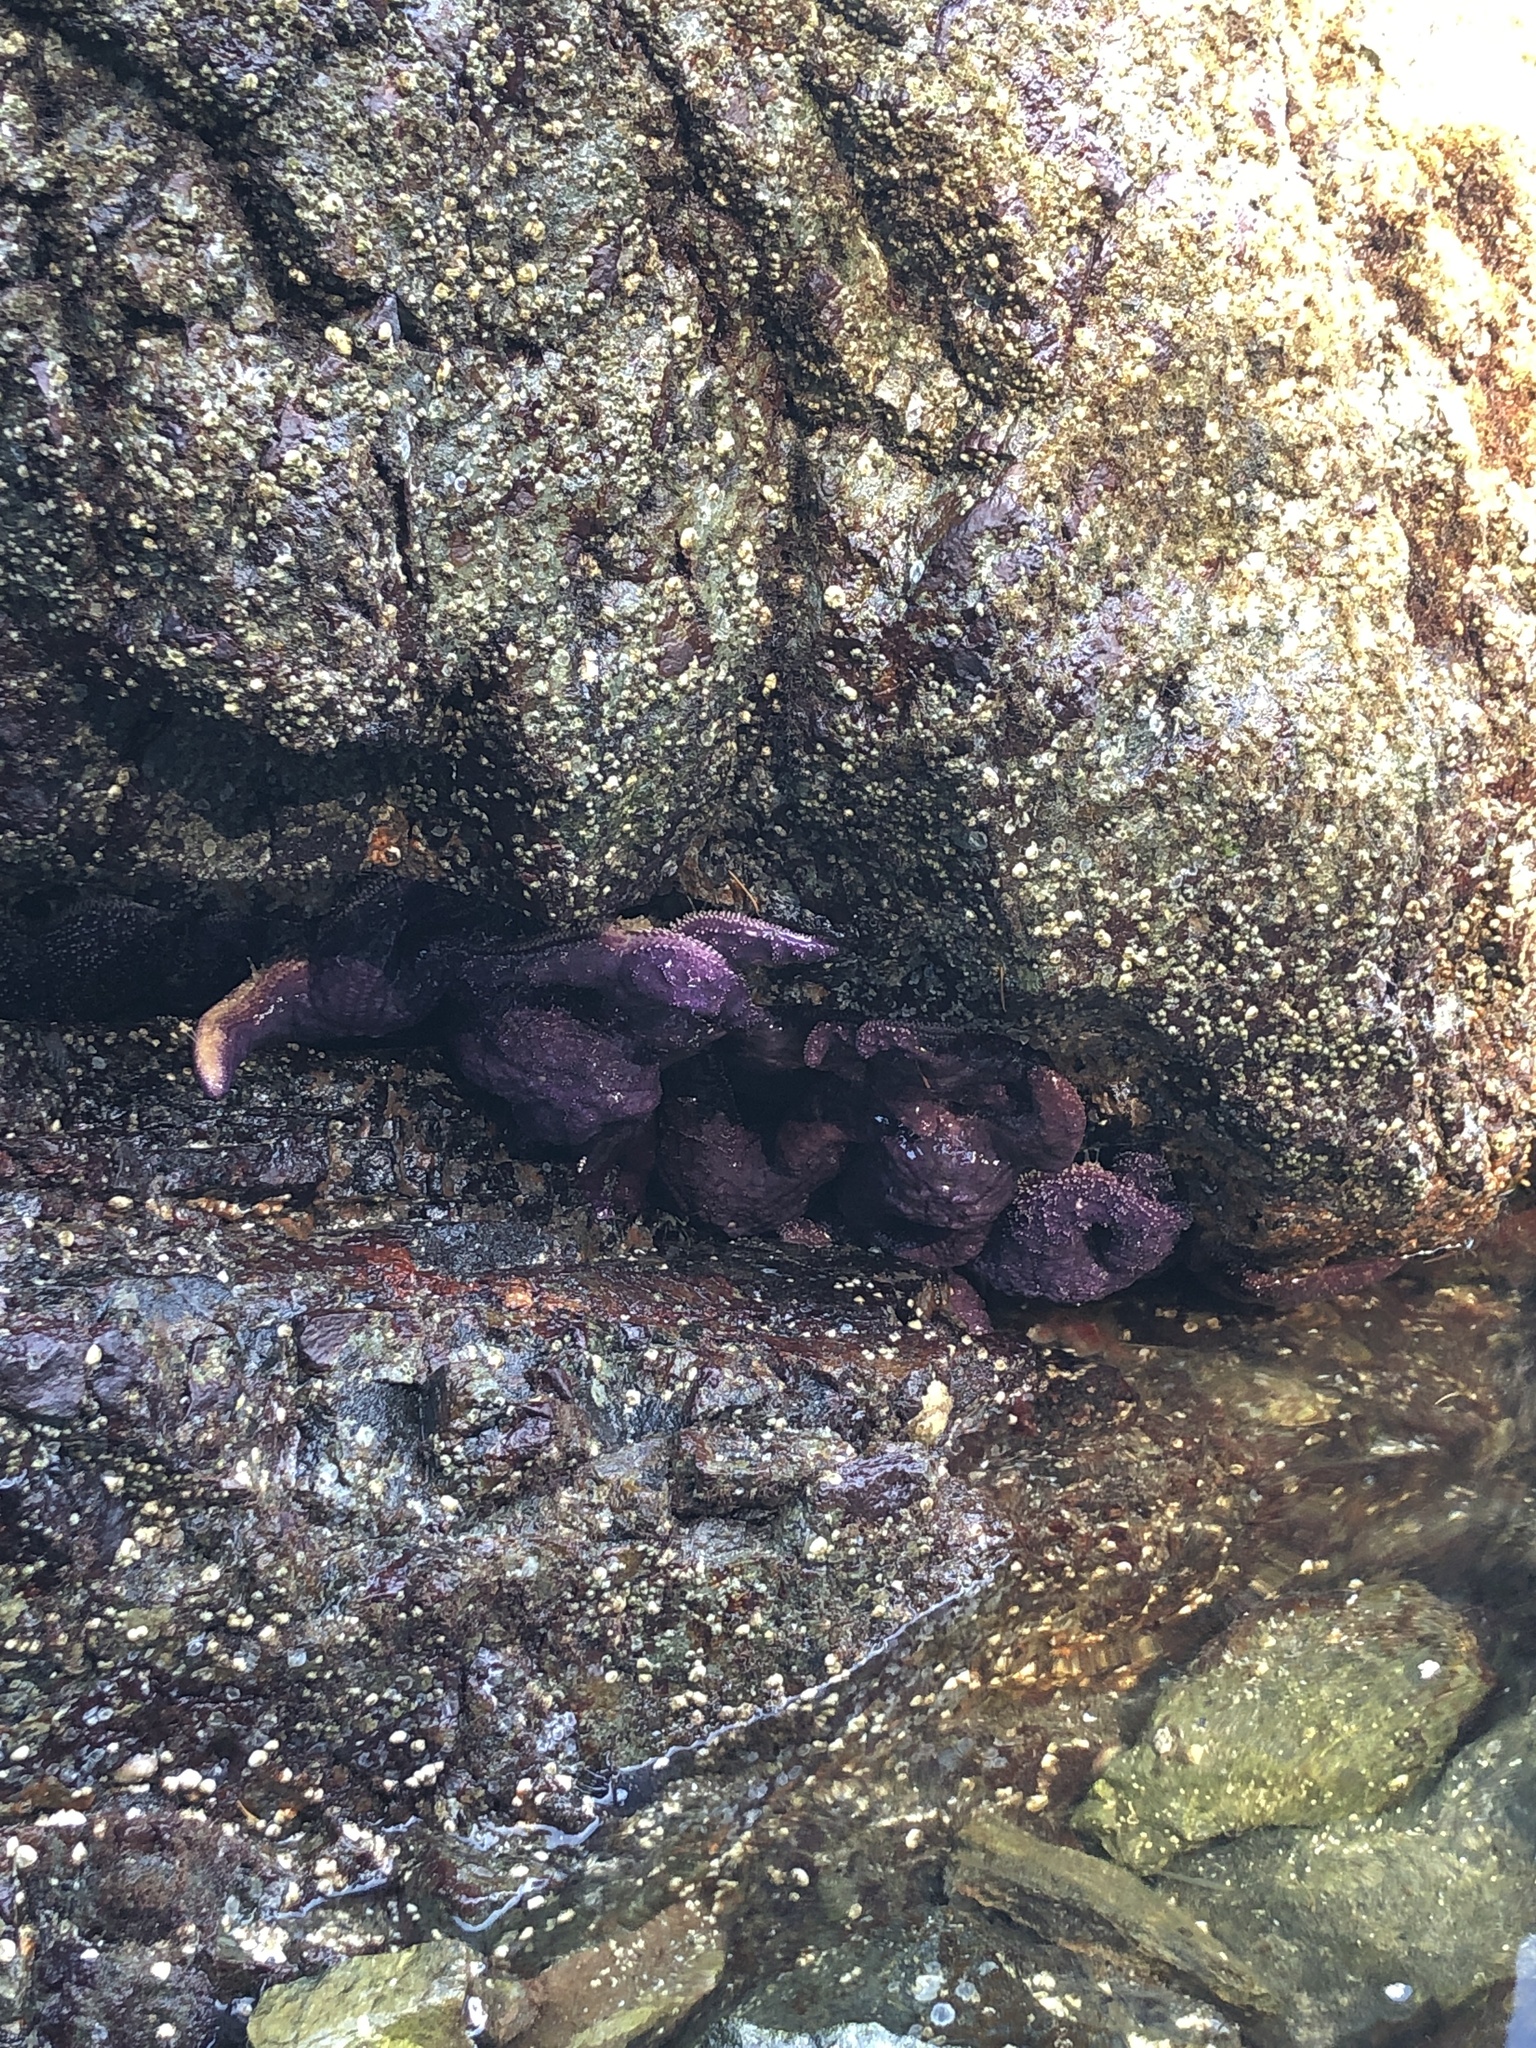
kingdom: Animalia
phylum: Echinodermata
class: Asteroidea
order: Forcipulatida
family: Asteriidae
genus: Pisaster
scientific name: Pisaster ochraceus
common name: Ochre stars
